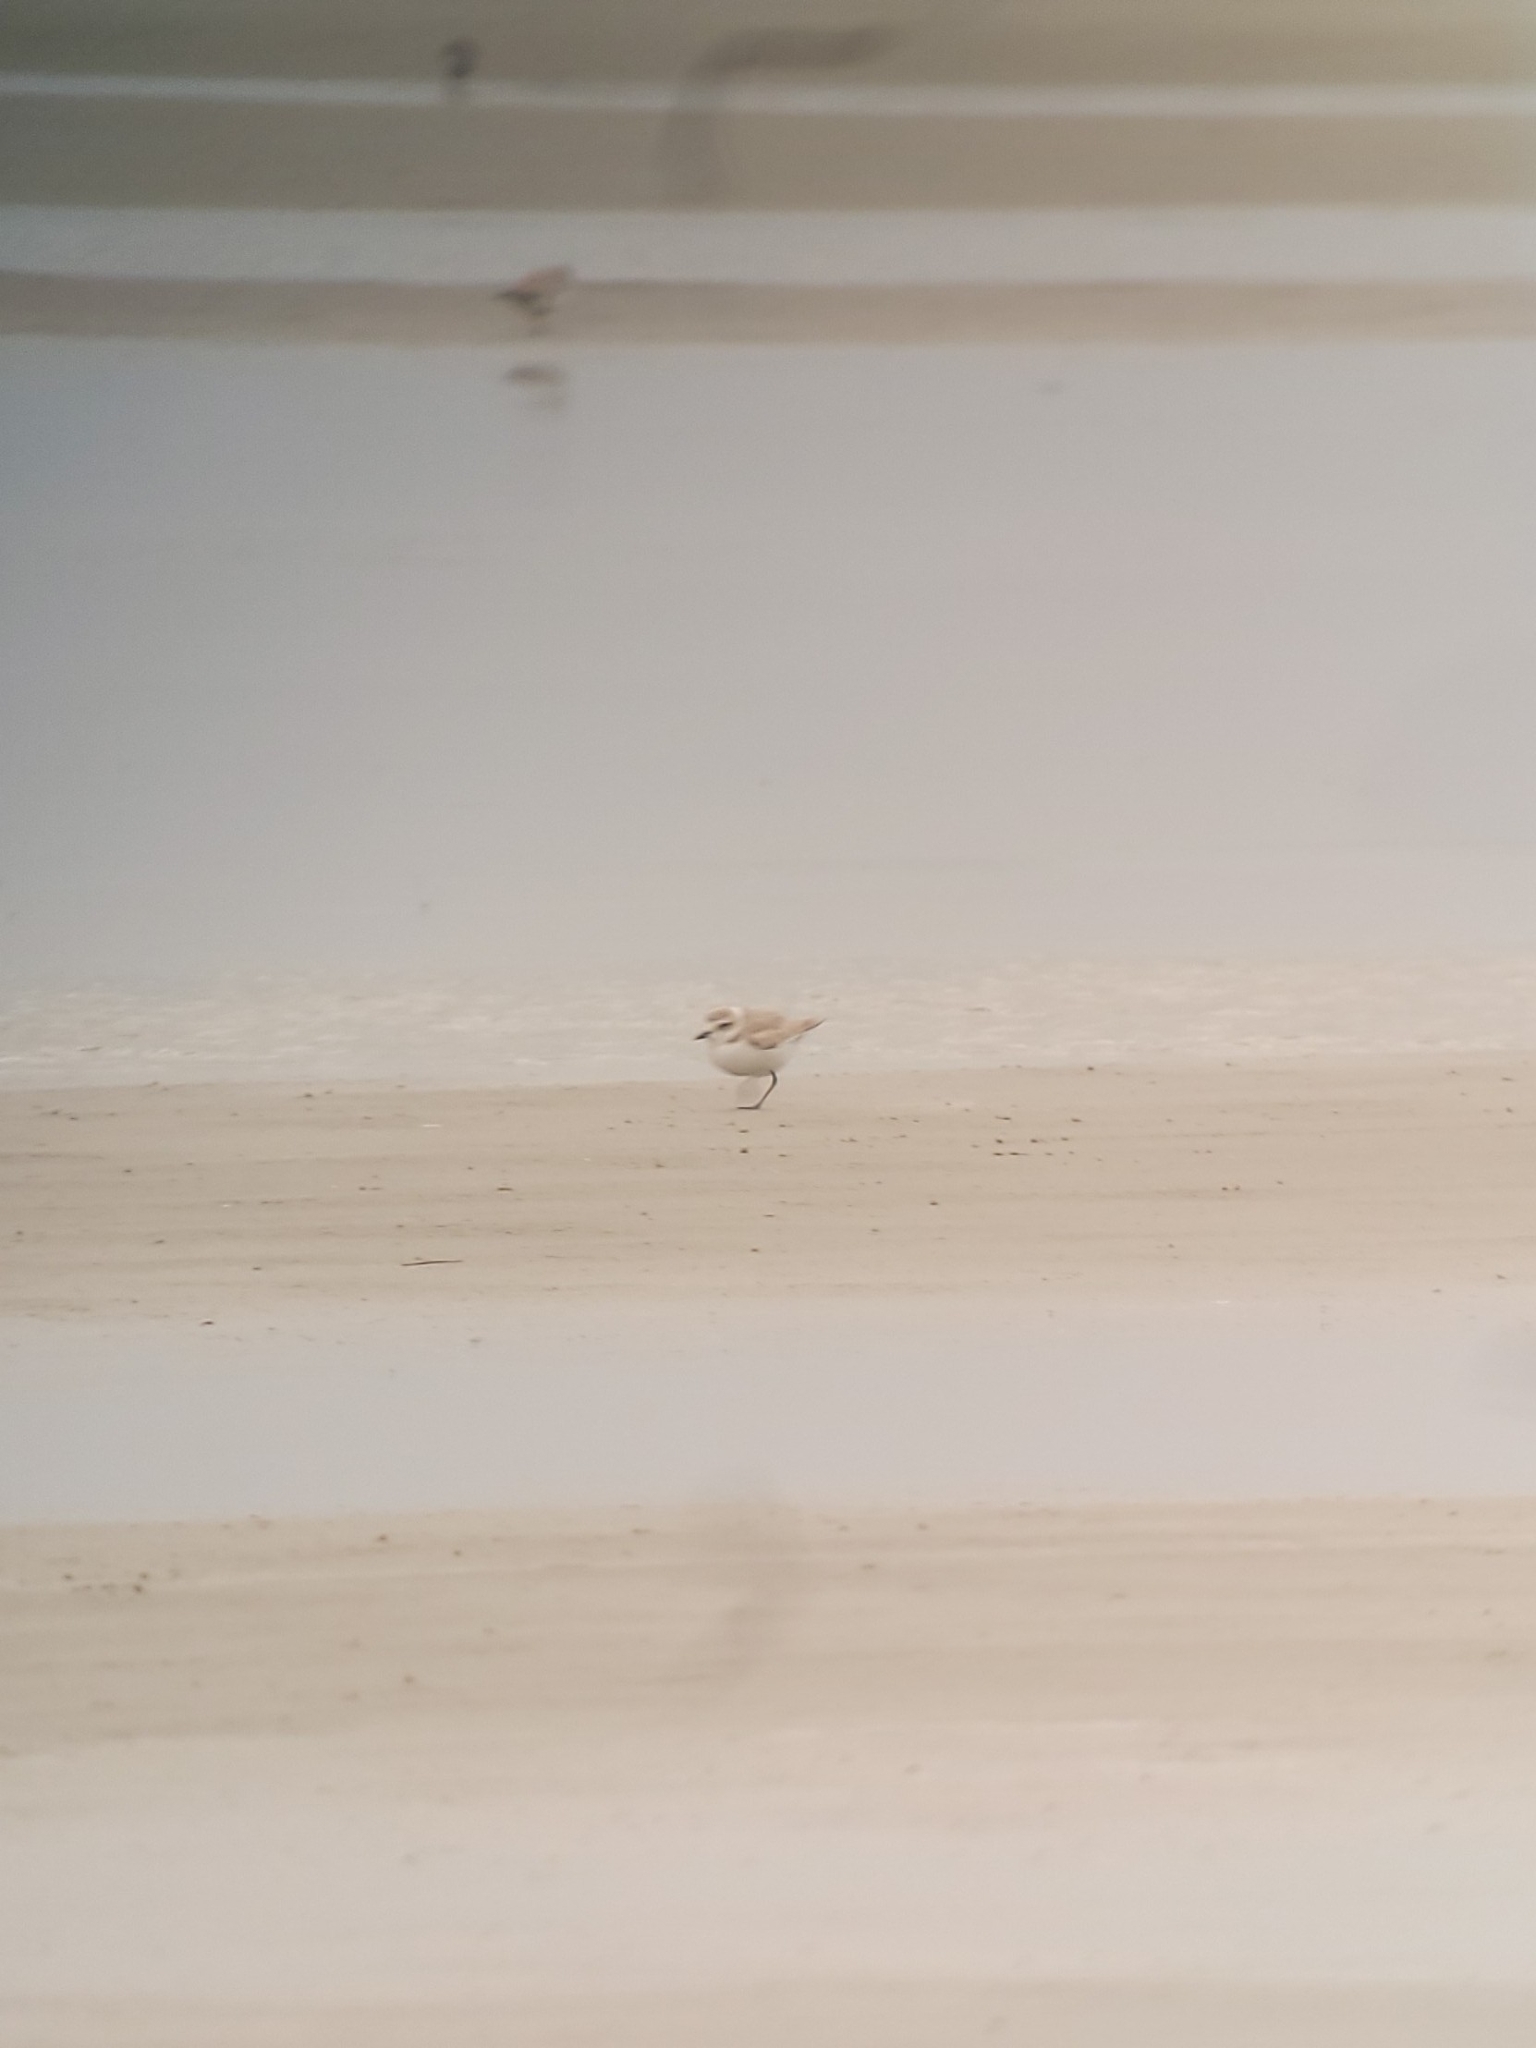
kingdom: Animalia
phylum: Chordata
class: Aves
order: Charadriiformes
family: Charadriidae
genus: Anarhynchus
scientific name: Anarhynchus
